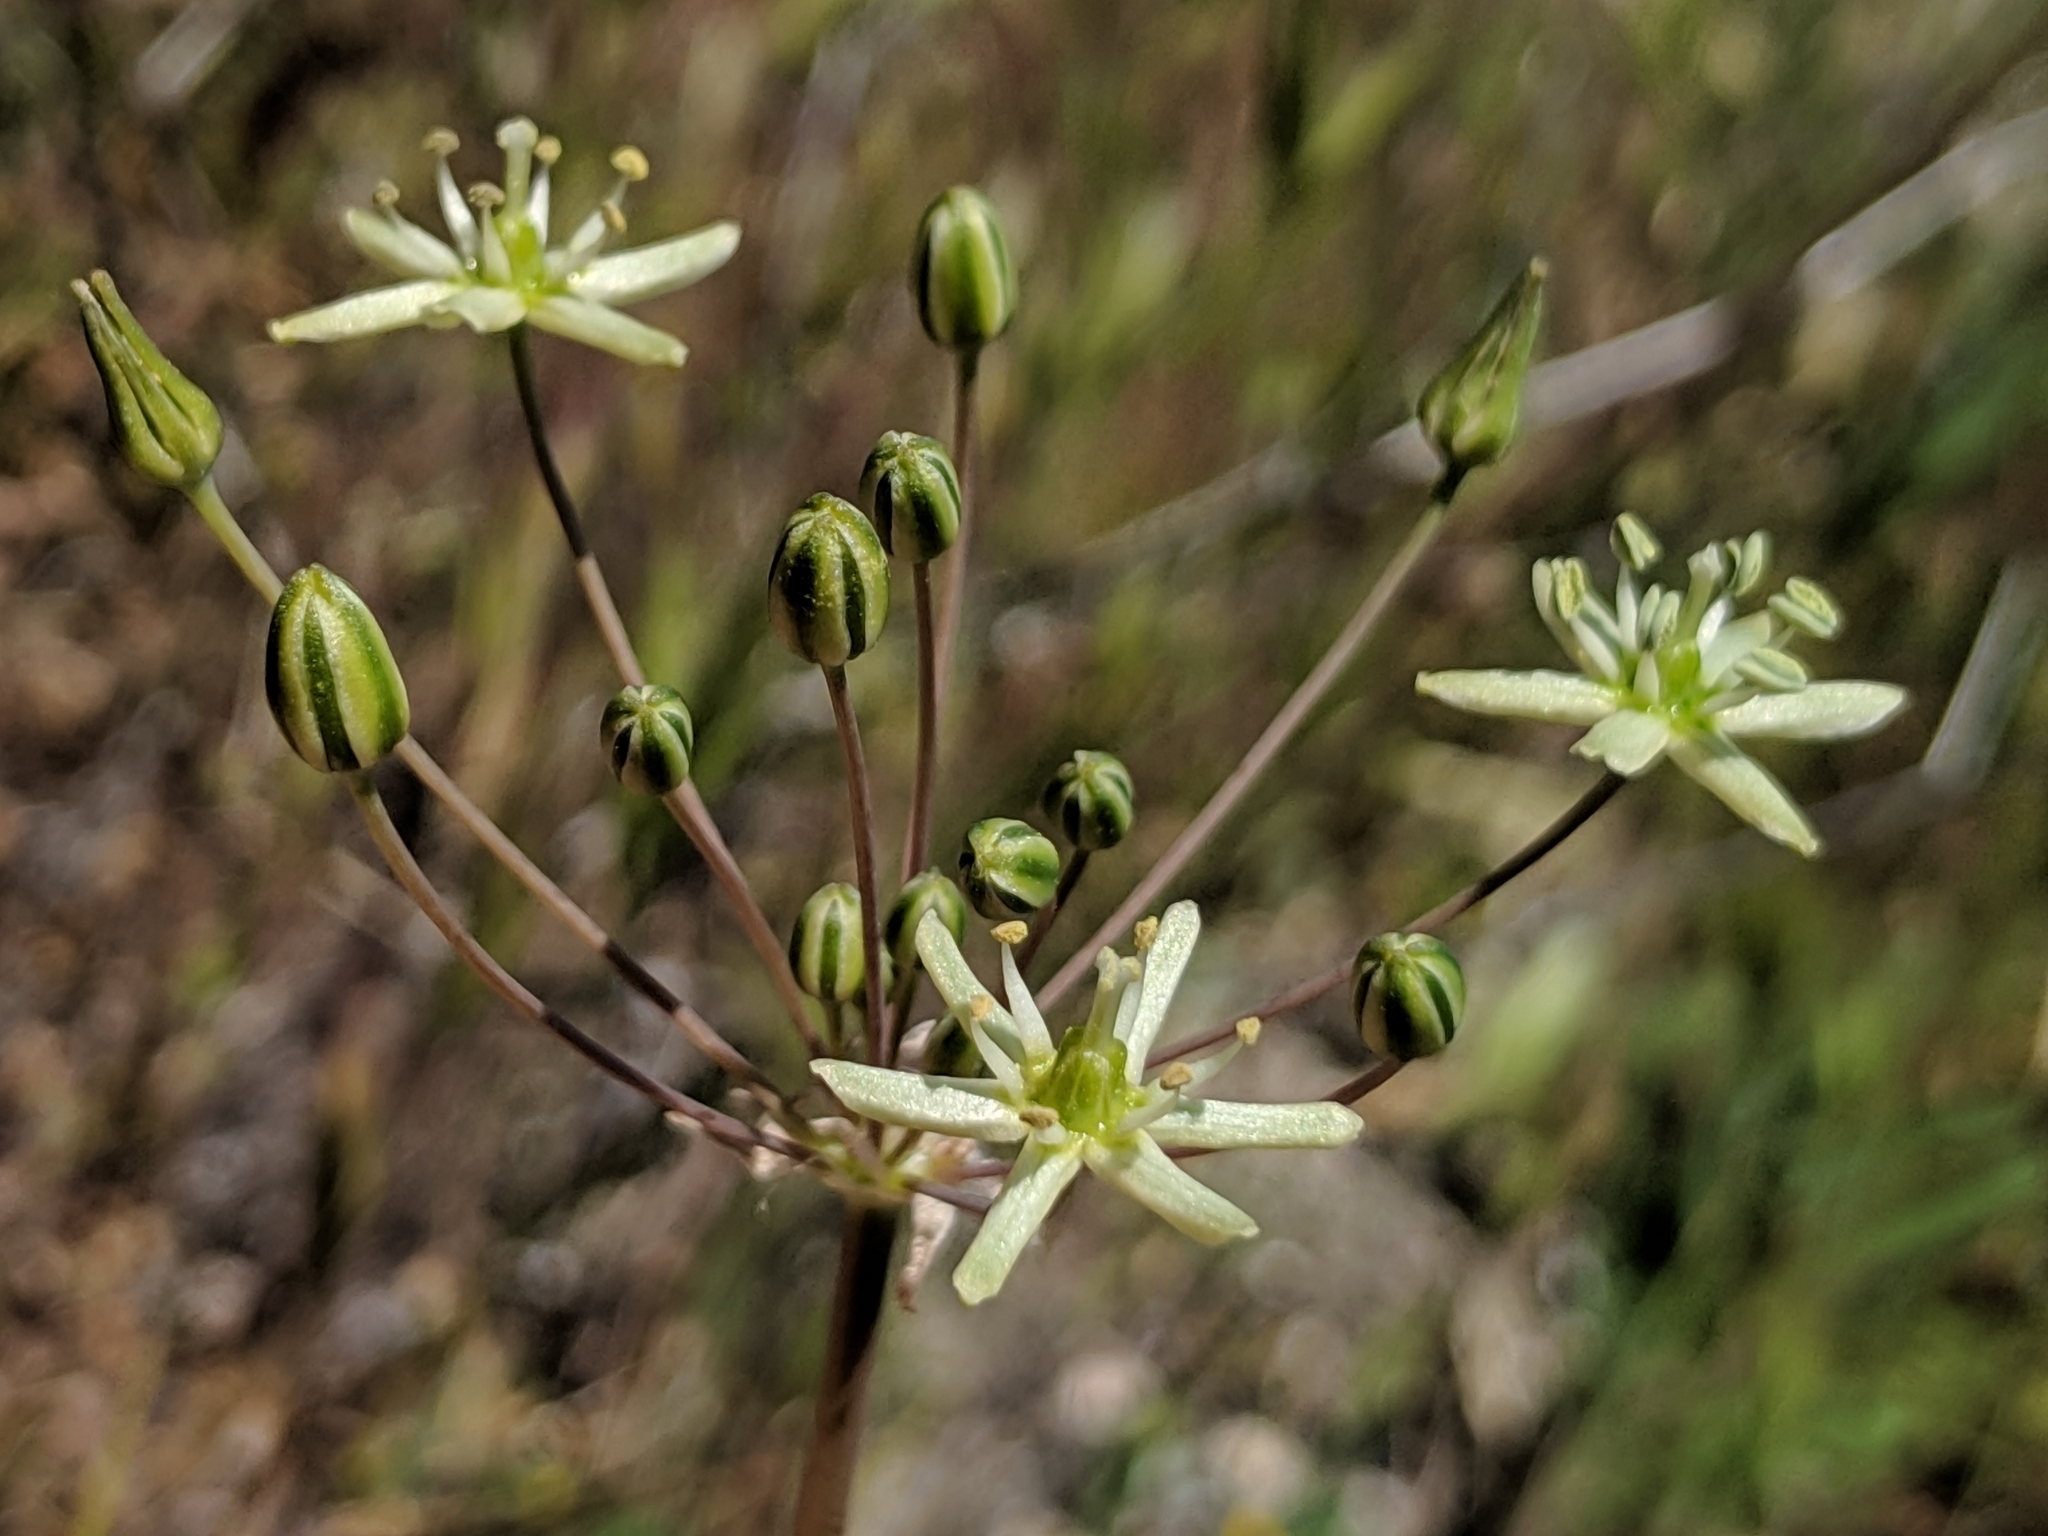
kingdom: Plantae
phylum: Tracheophyta
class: Liliopsida
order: Asparagales
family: Asparagaceae
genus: Muilla
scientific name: Muilla maritima
